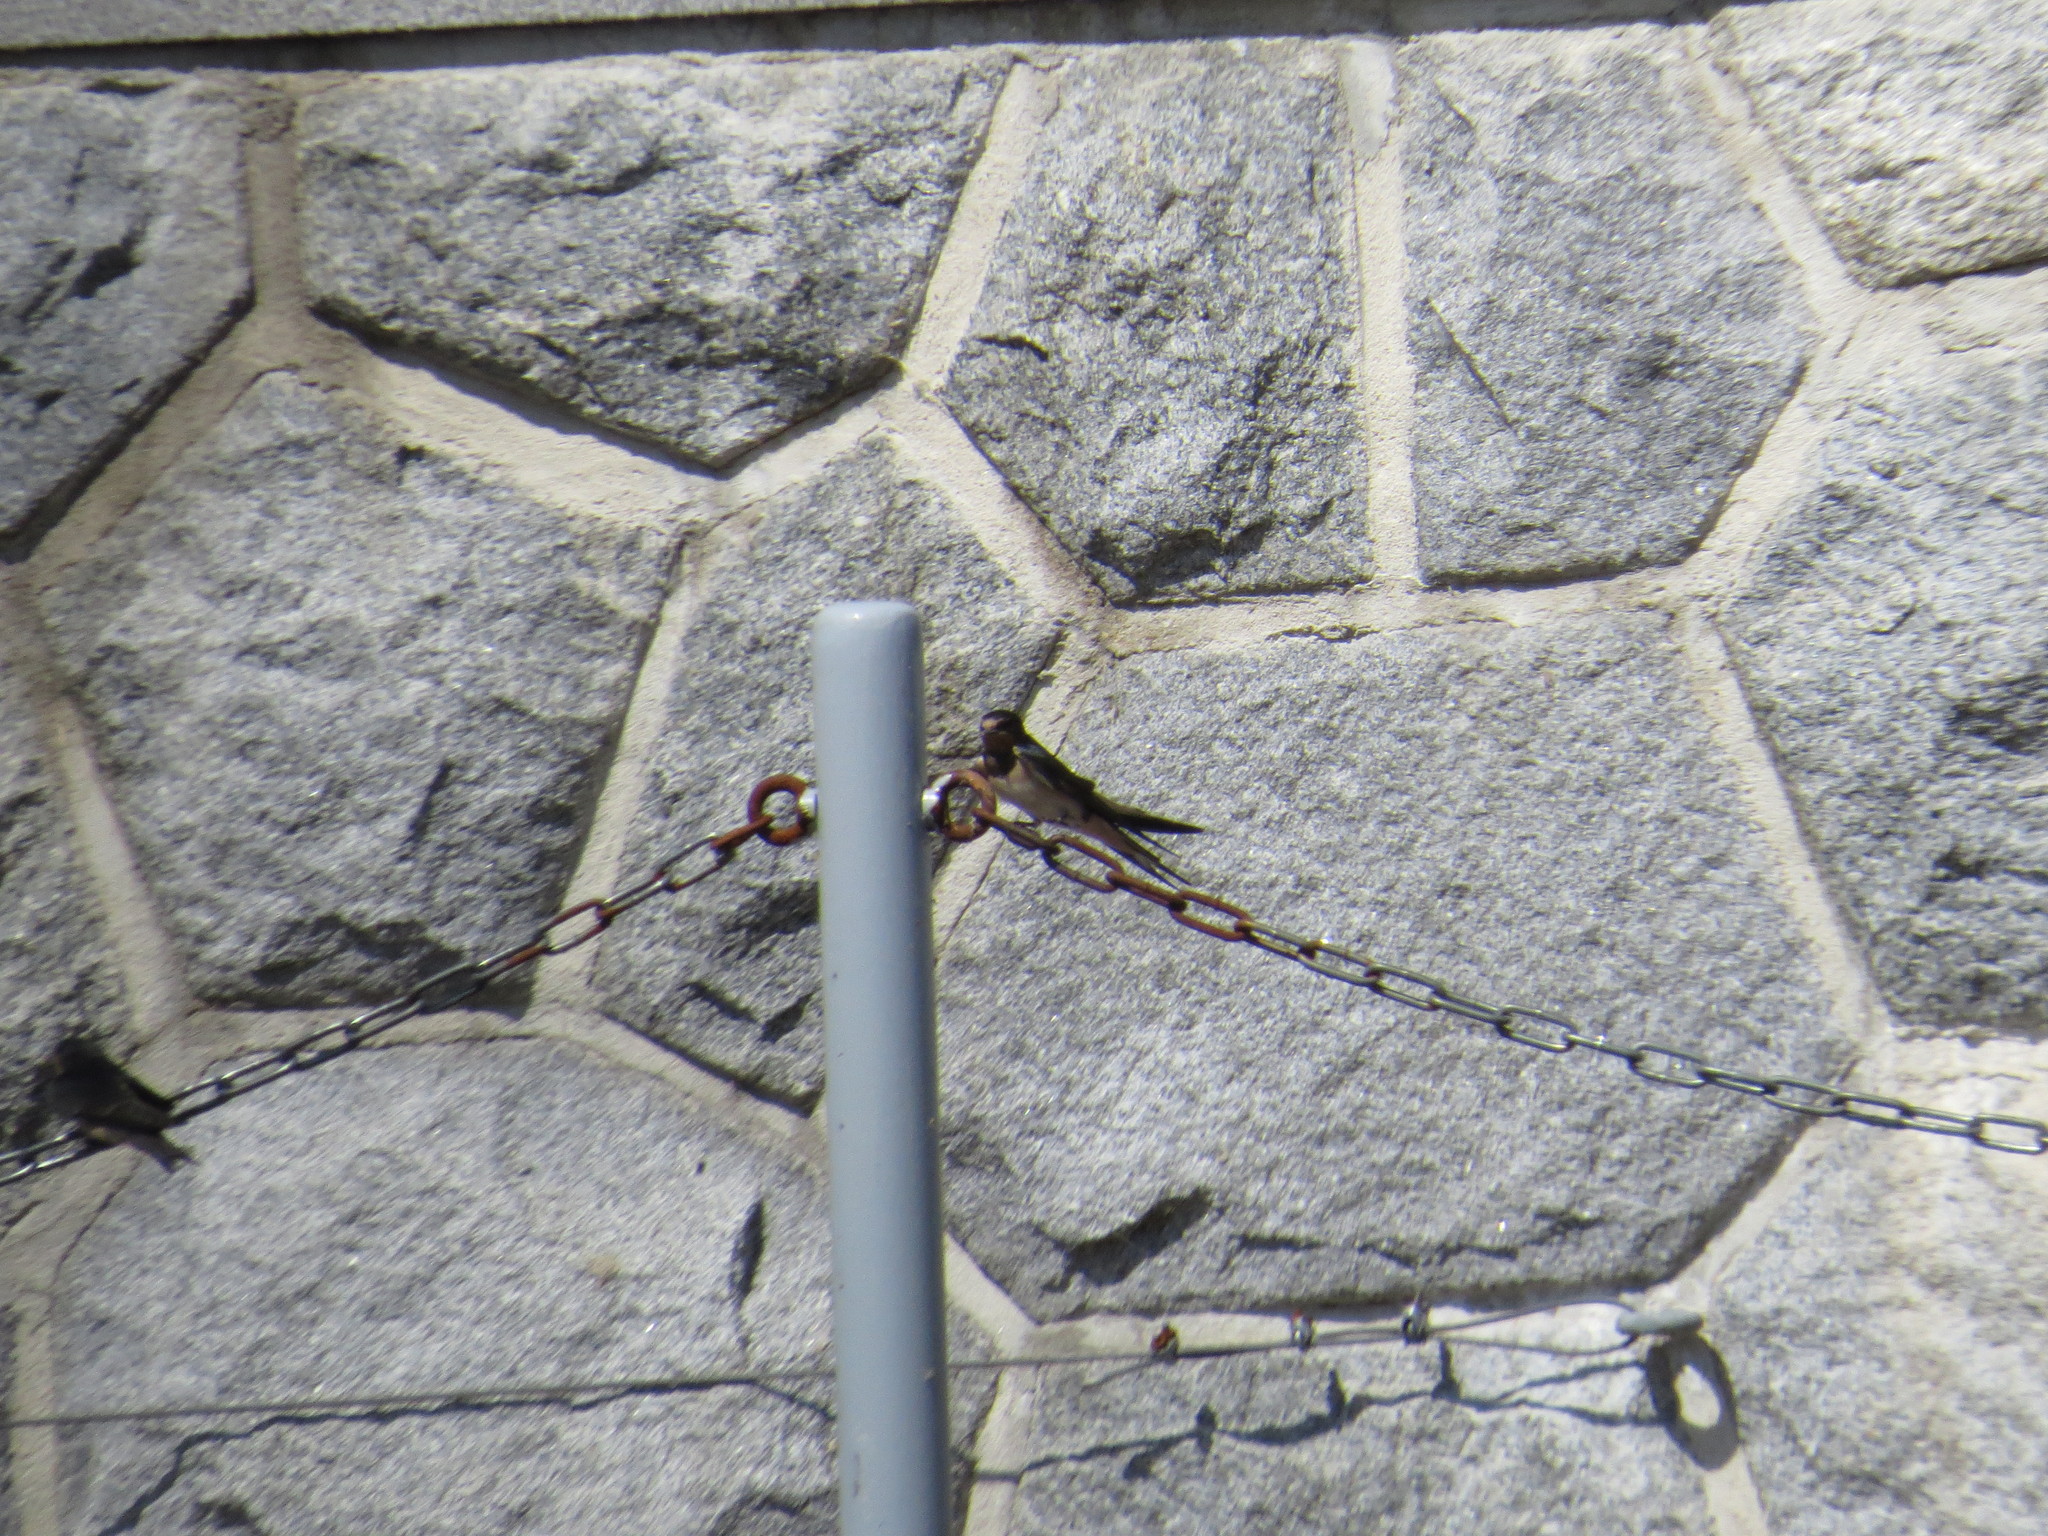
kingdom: Animalia
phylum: Chordata
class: Aves
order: Passeriformes
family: Hirundinidae
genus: Hirundo
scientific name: Hirundo rustica
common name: Barn swallow
